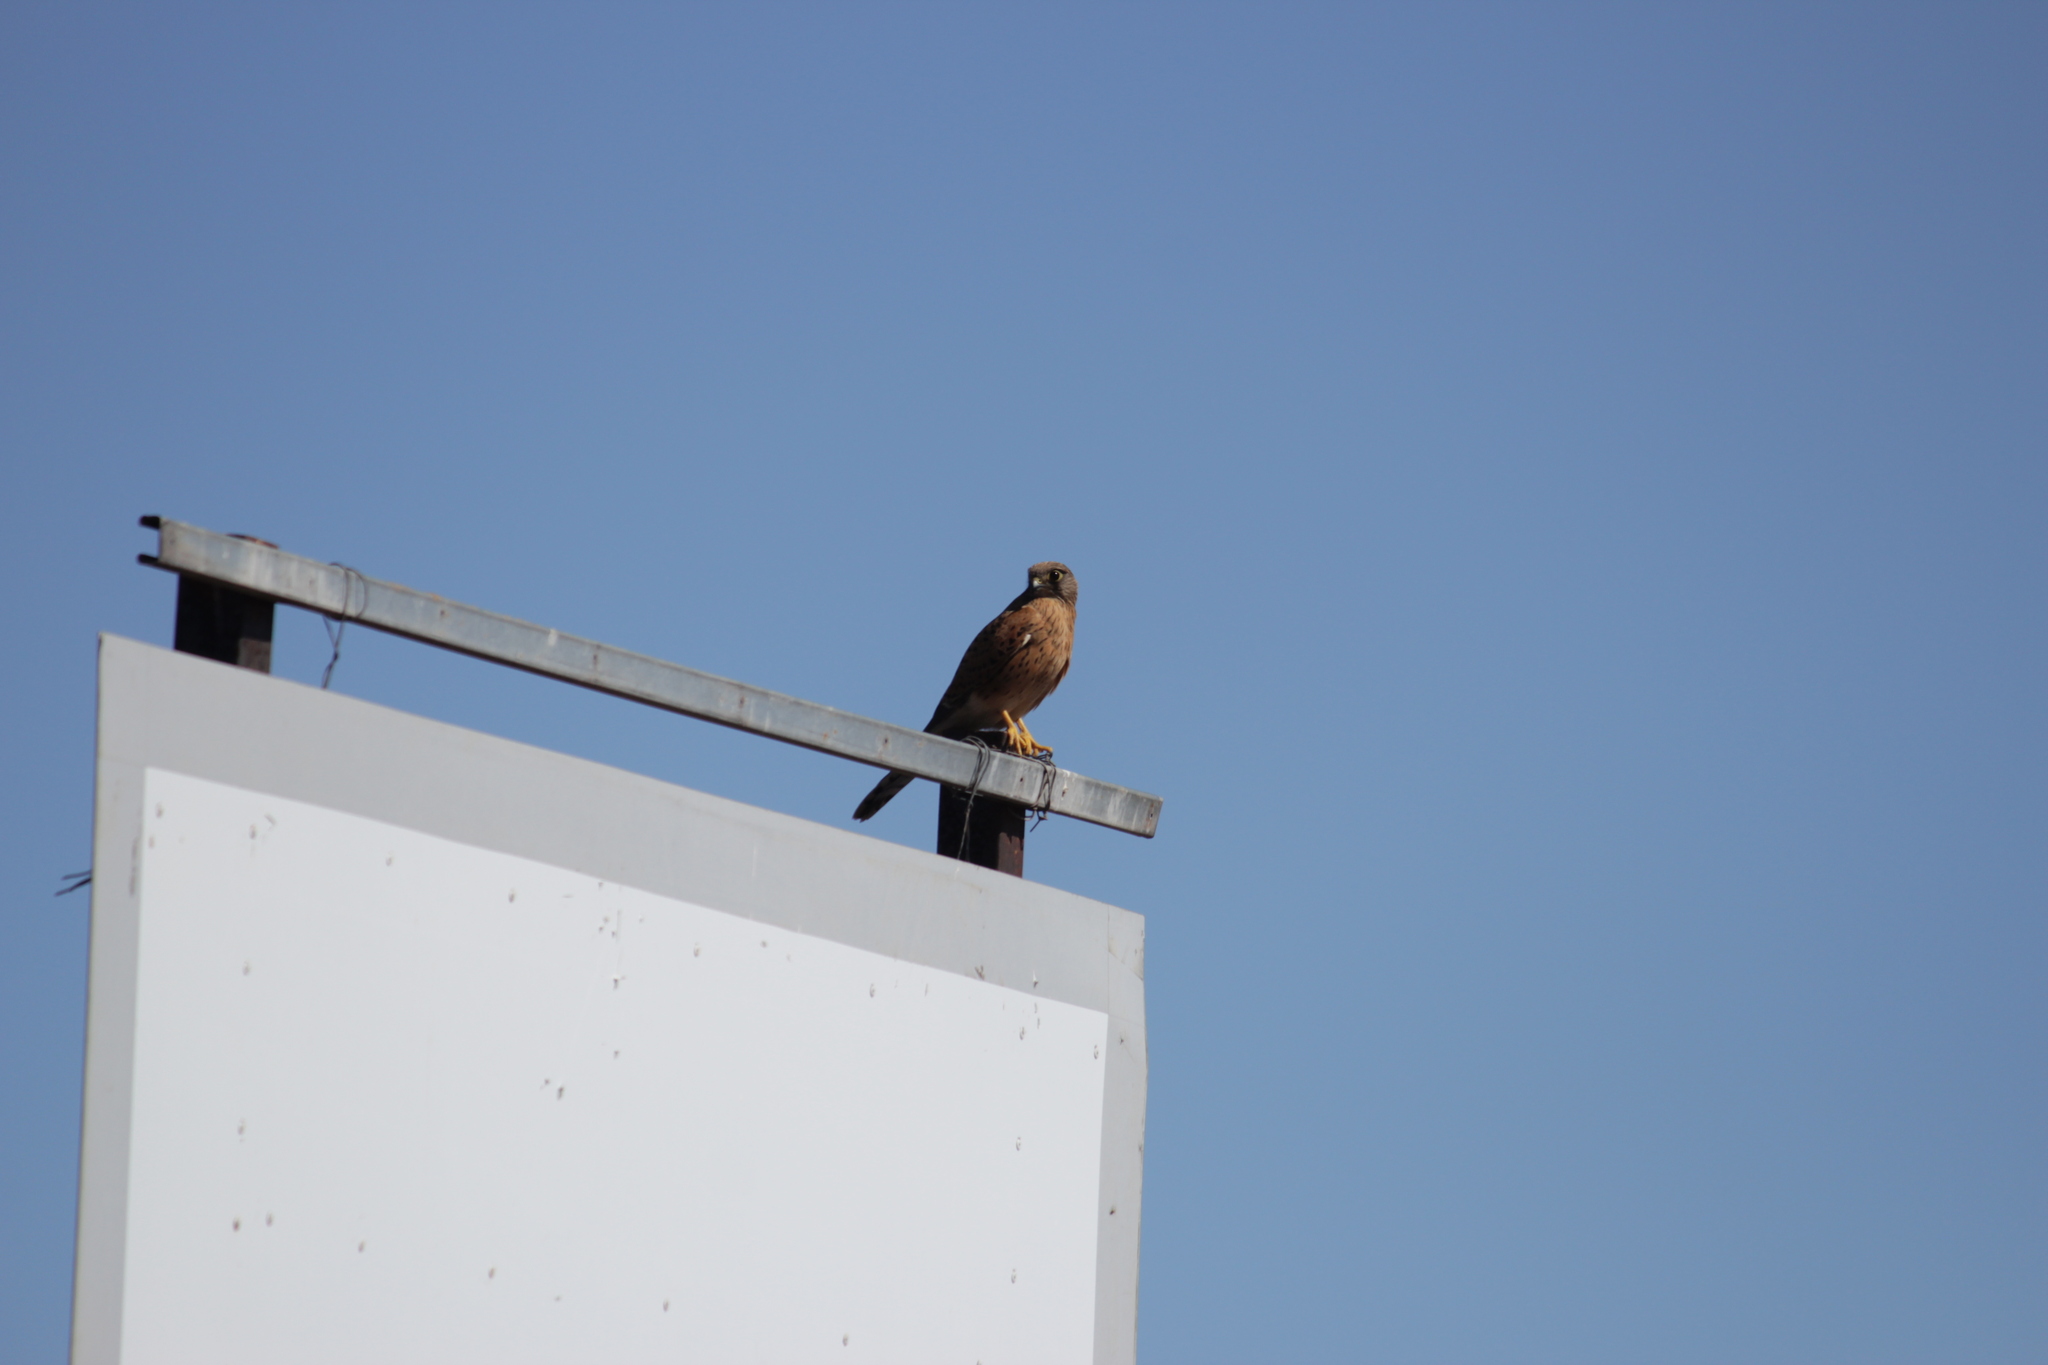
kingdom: Animalia
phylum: Chordata
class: Aves
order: Falconiformes
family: Falconidae
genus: Falco
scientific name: Falco rupicolus
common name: Rock kestrel
